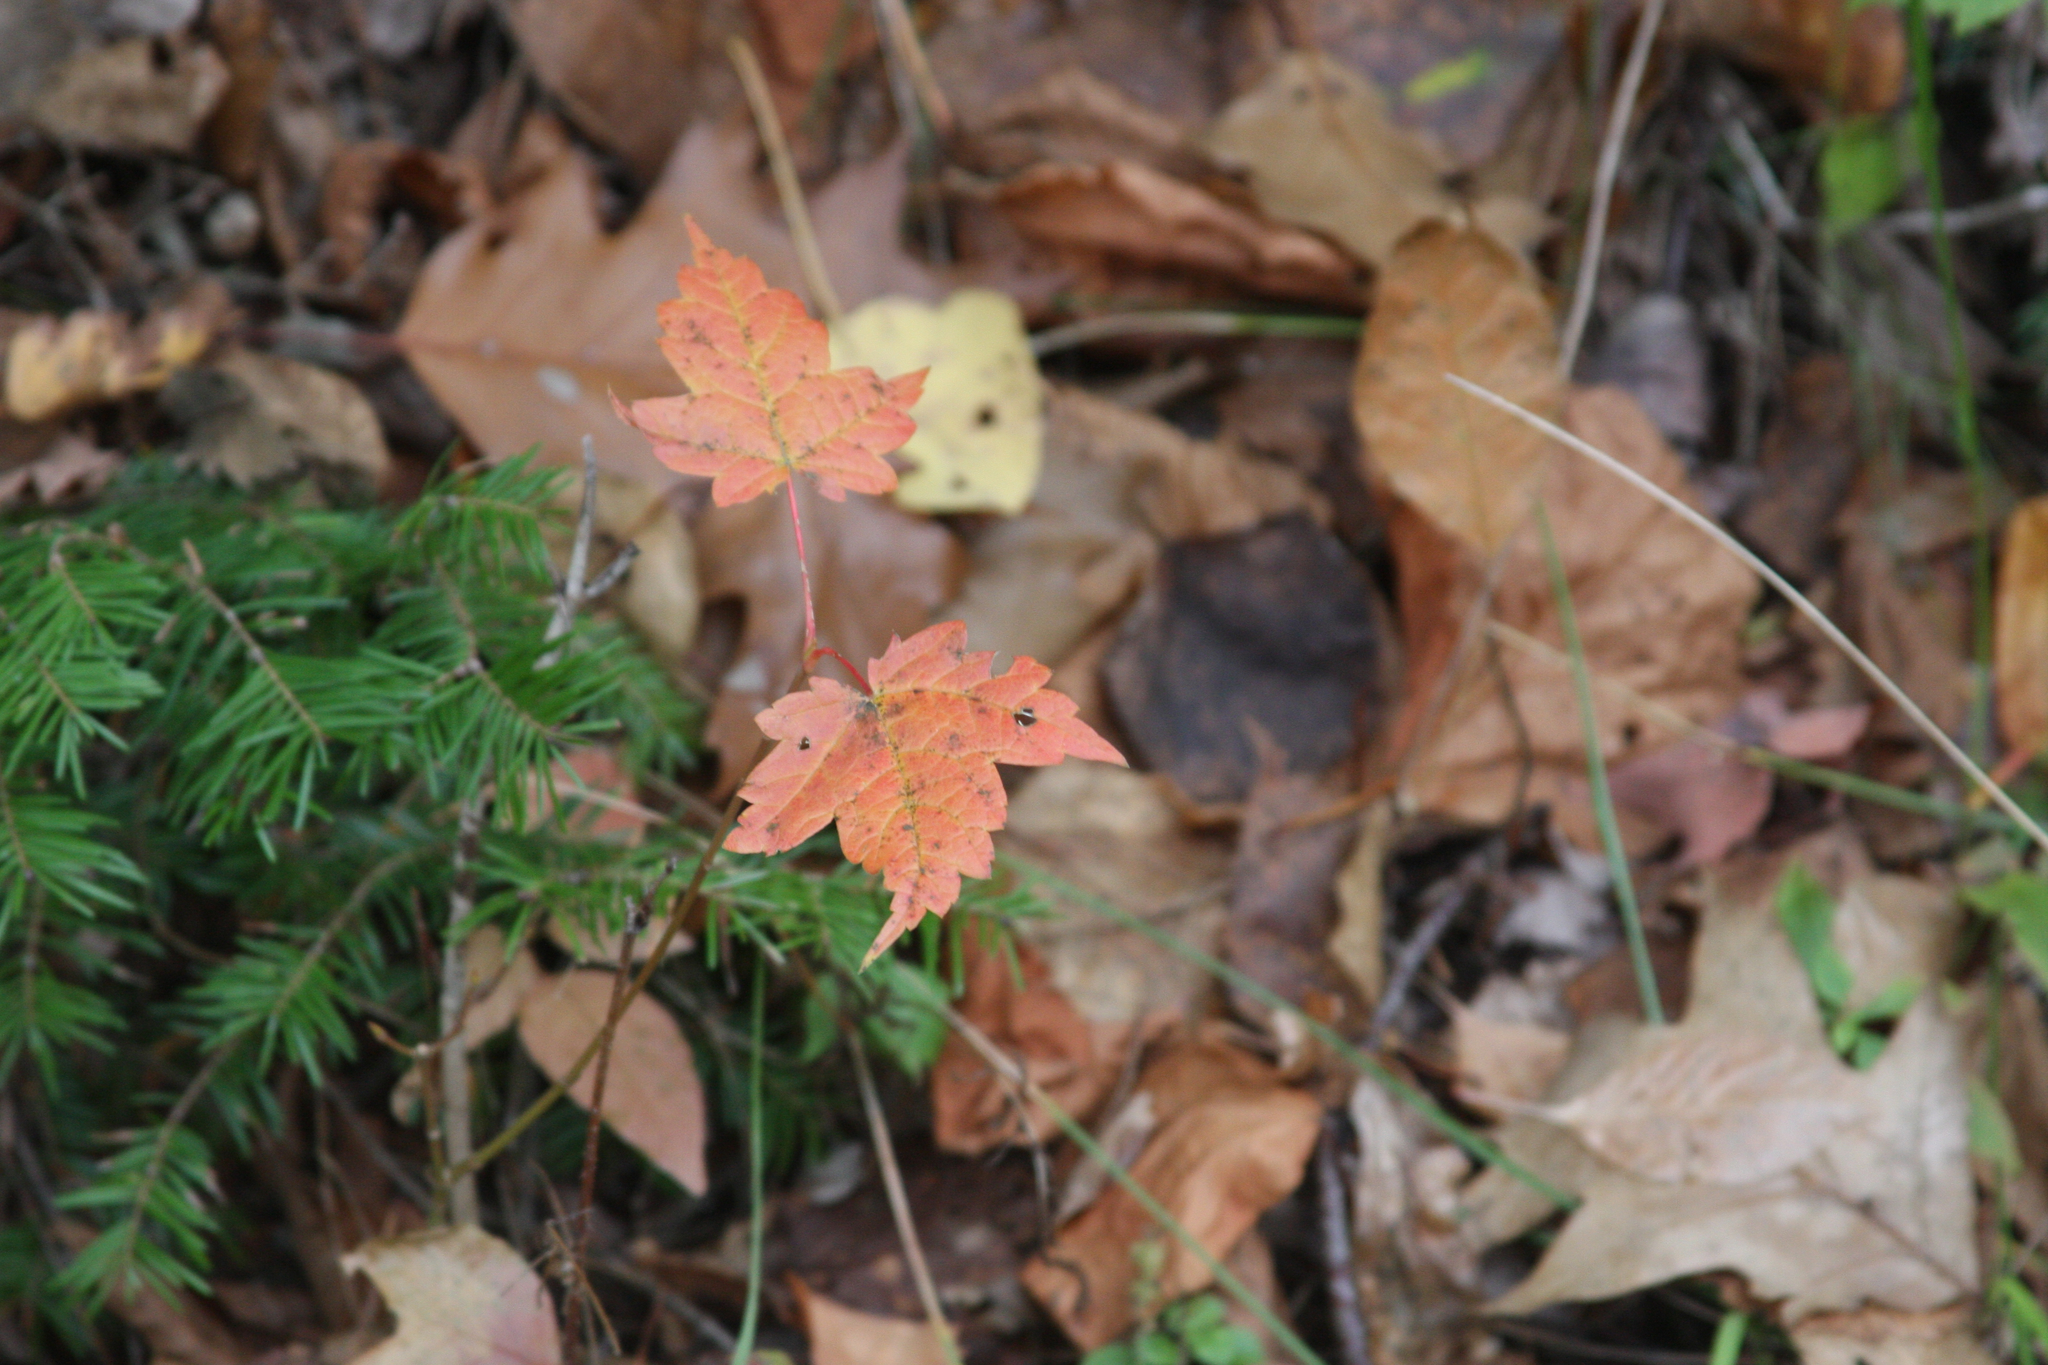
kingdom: Plantae
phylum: Tracheophyta
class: Magnoliopsida
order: Sapindales
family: Sapindaceae
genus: Acer
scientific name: Acer rubrum
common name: Red maple
